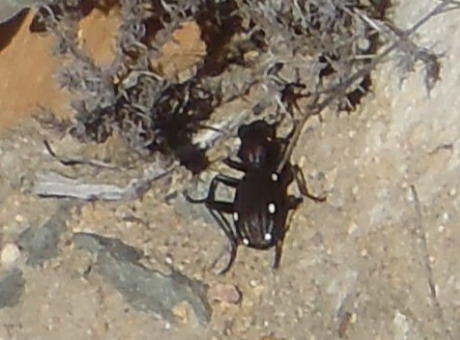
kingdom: Animalia
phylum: Arthropoda
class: Insecta
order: Coleoptera
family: Carabidae
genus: Anthia
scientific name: Anthia decemguttata
